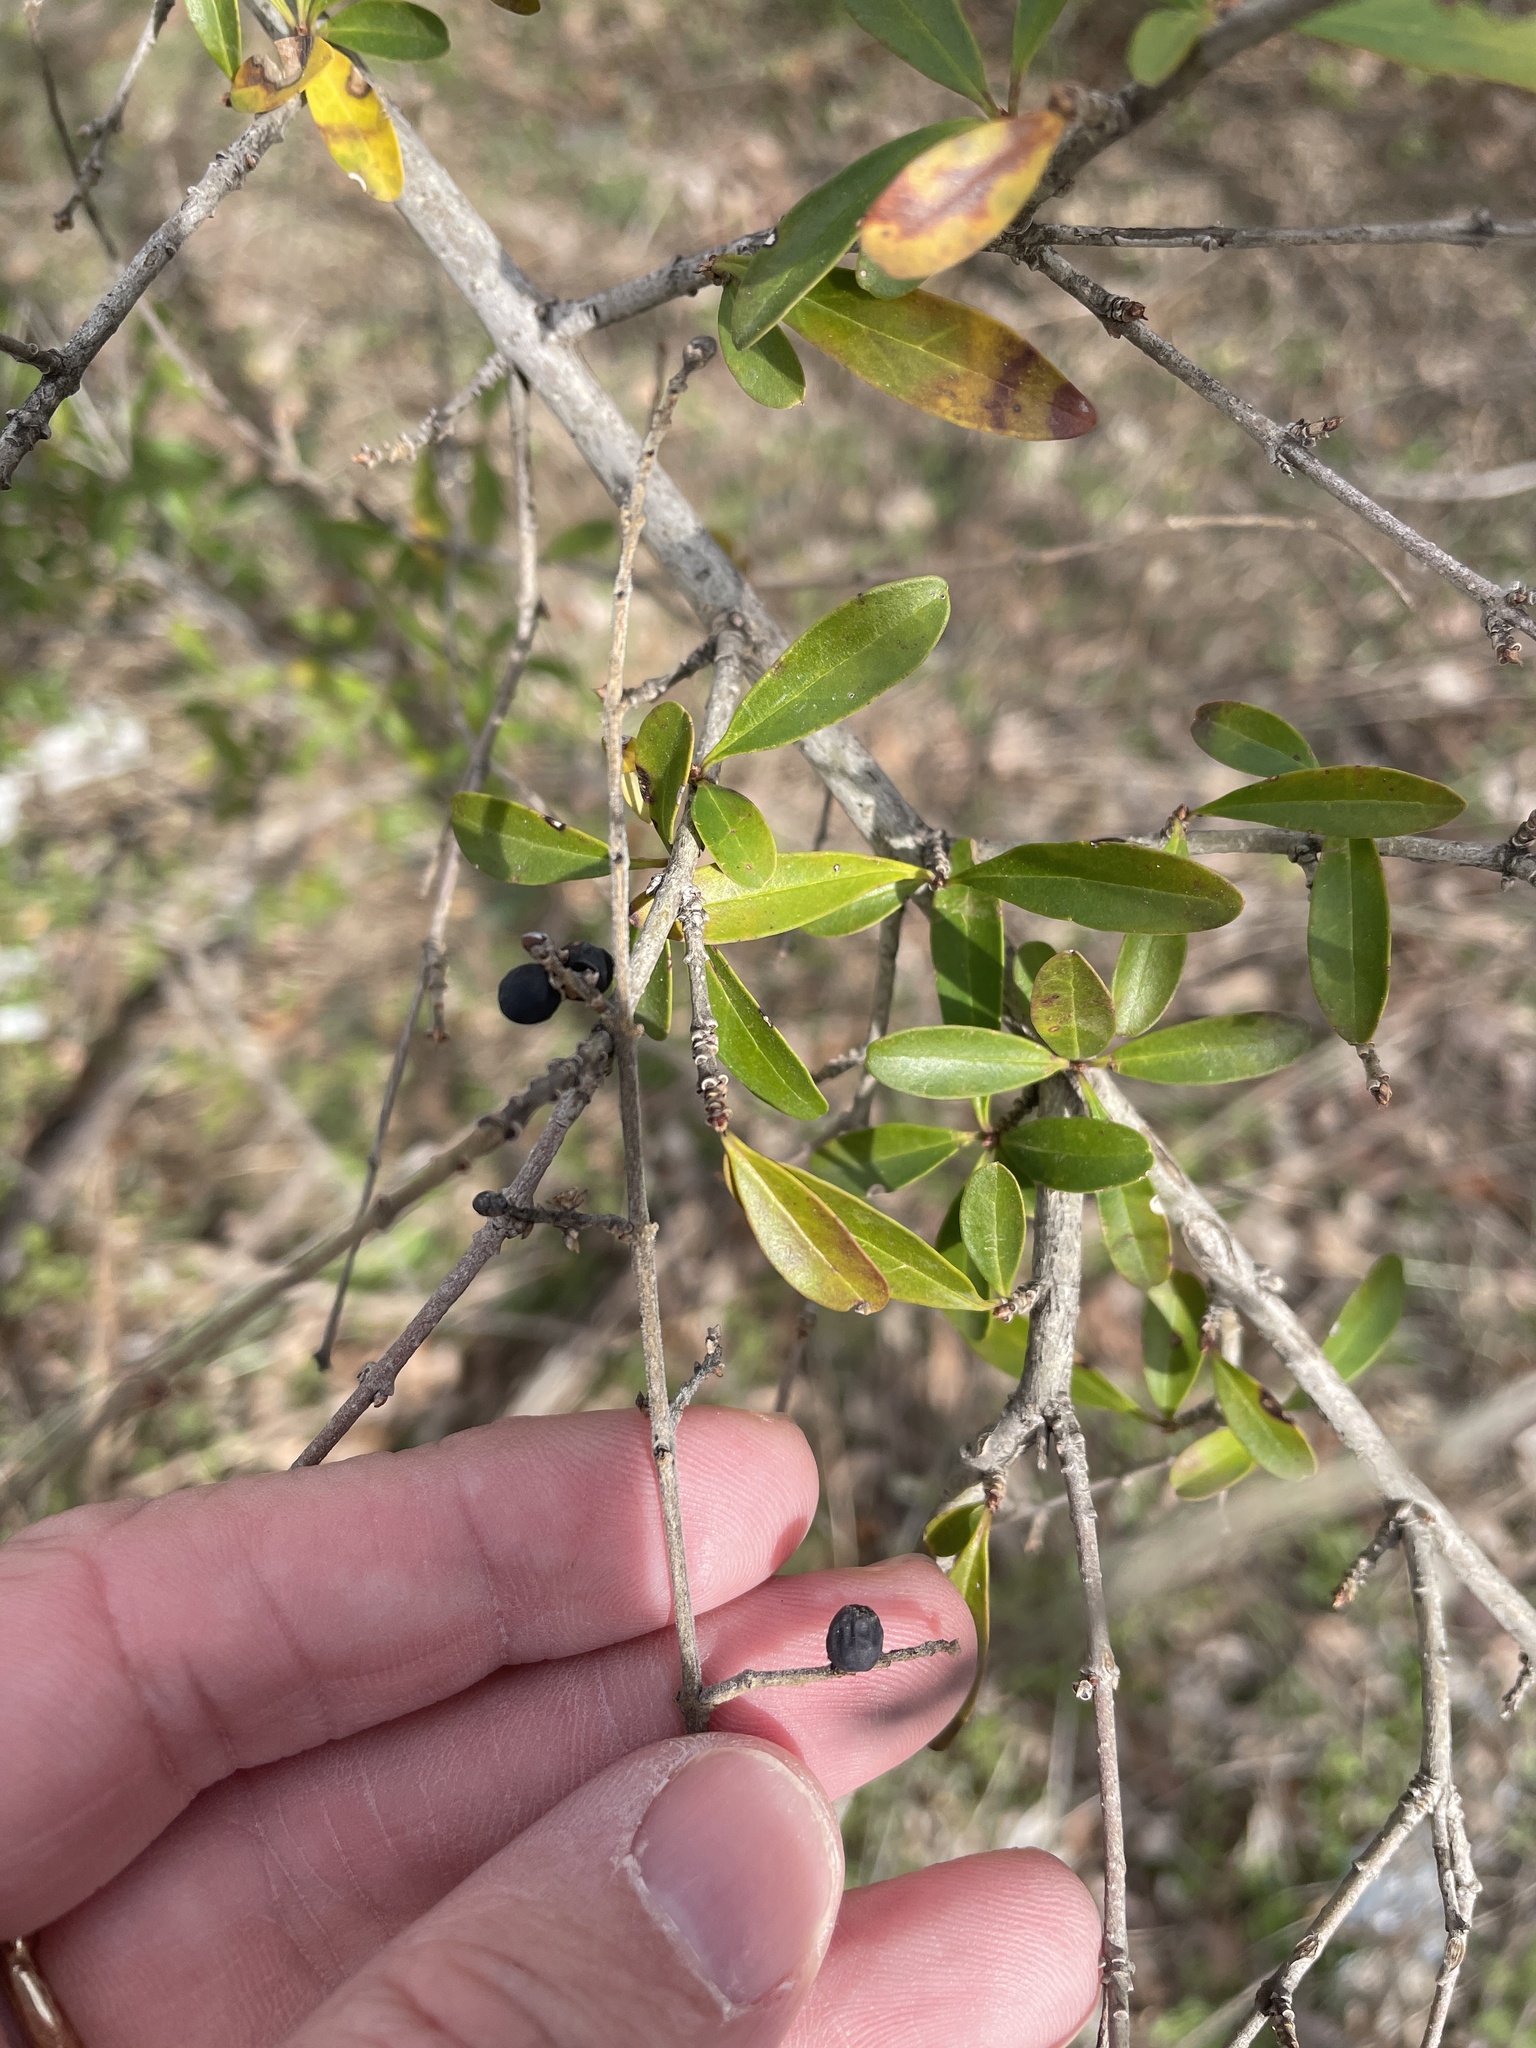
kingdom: Plantae
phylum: Tracheophyta
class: Magnoliopsida
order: Lamiales
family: Oleaceae
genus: Ligustrum
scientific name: Ligustrum quihoui
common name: Waxyleaf privet
